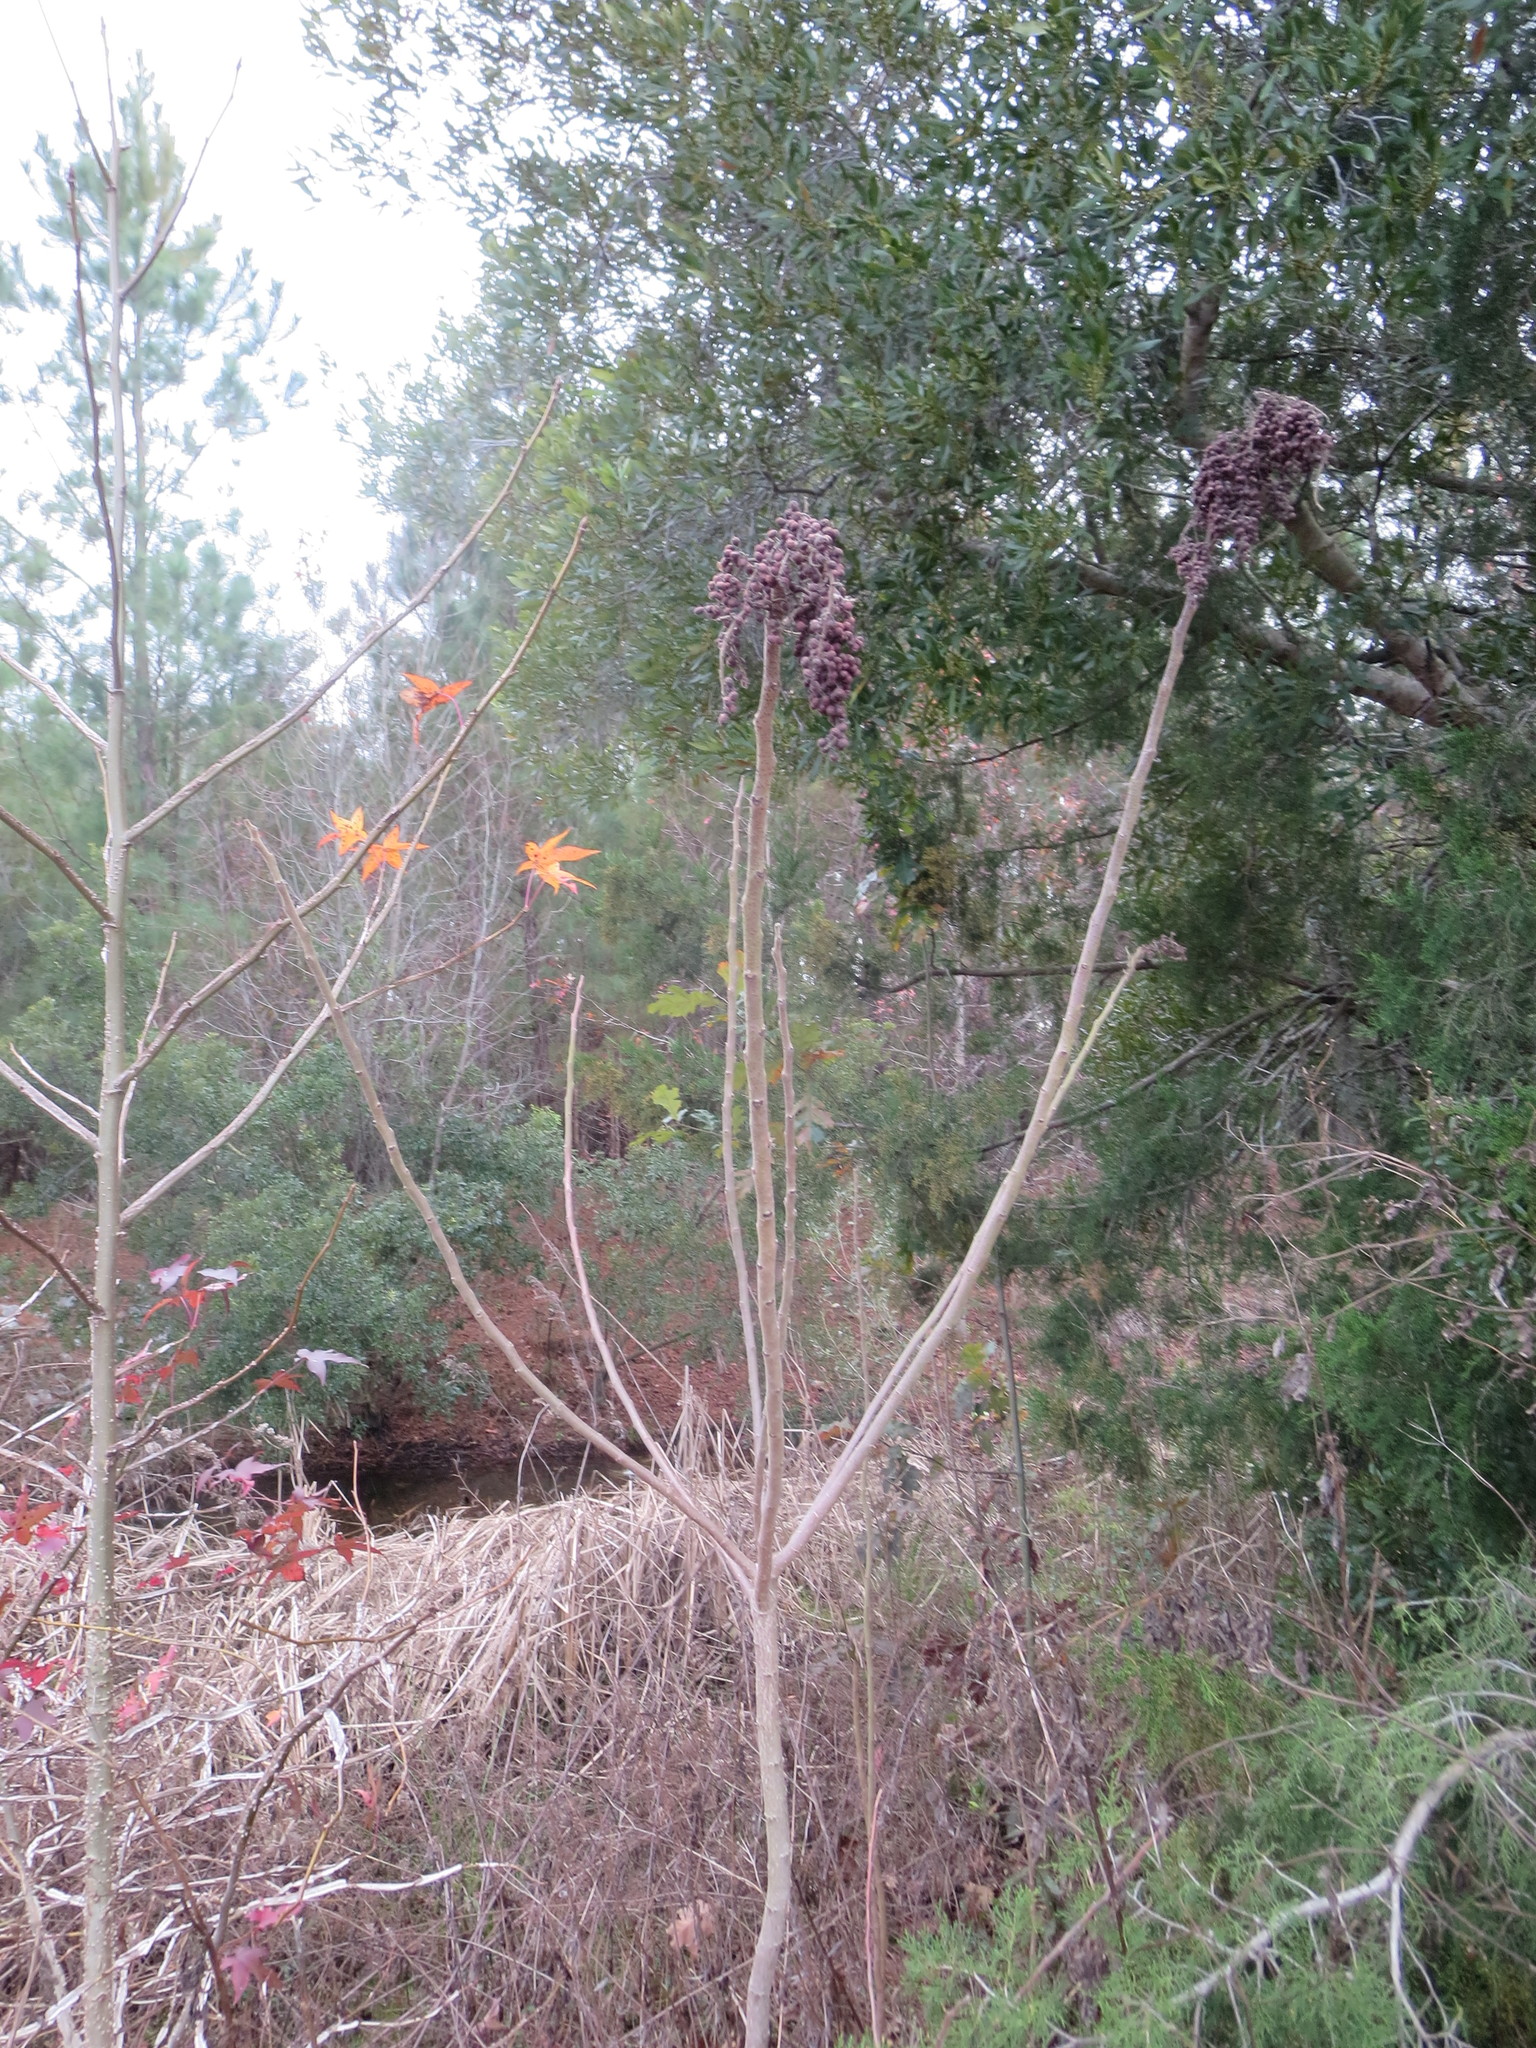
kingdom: Plantae
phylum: Tracheophyta
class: Magnoliopsida
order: Sapindales
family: Anacardiaceae
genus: Rhus
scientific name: Rhus copallina
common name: Shining sumac
